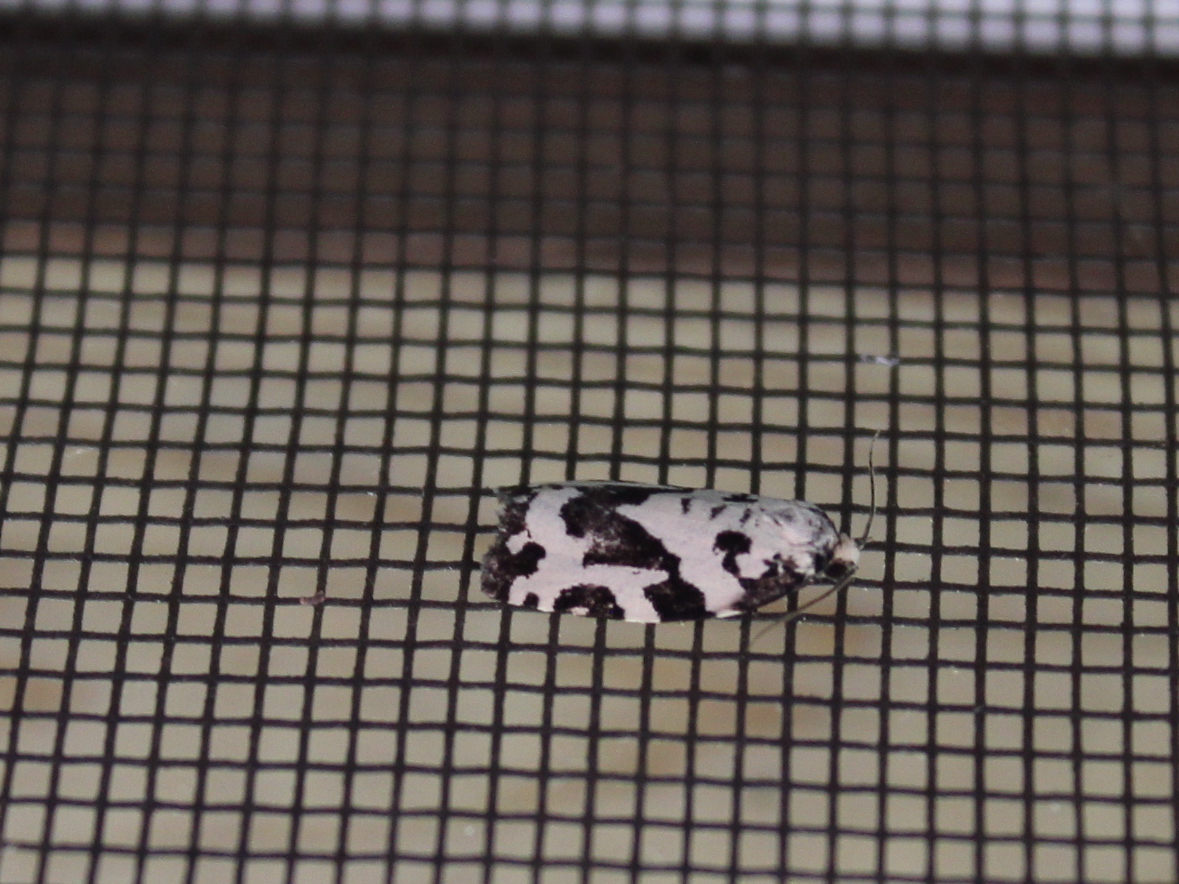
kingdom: Animalia
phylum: Arthropoda
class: Insecta
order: Lepidoptera
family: Tortricidae
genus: Archips
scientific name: Archips dissitana
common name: Boldly-marked archips moth
